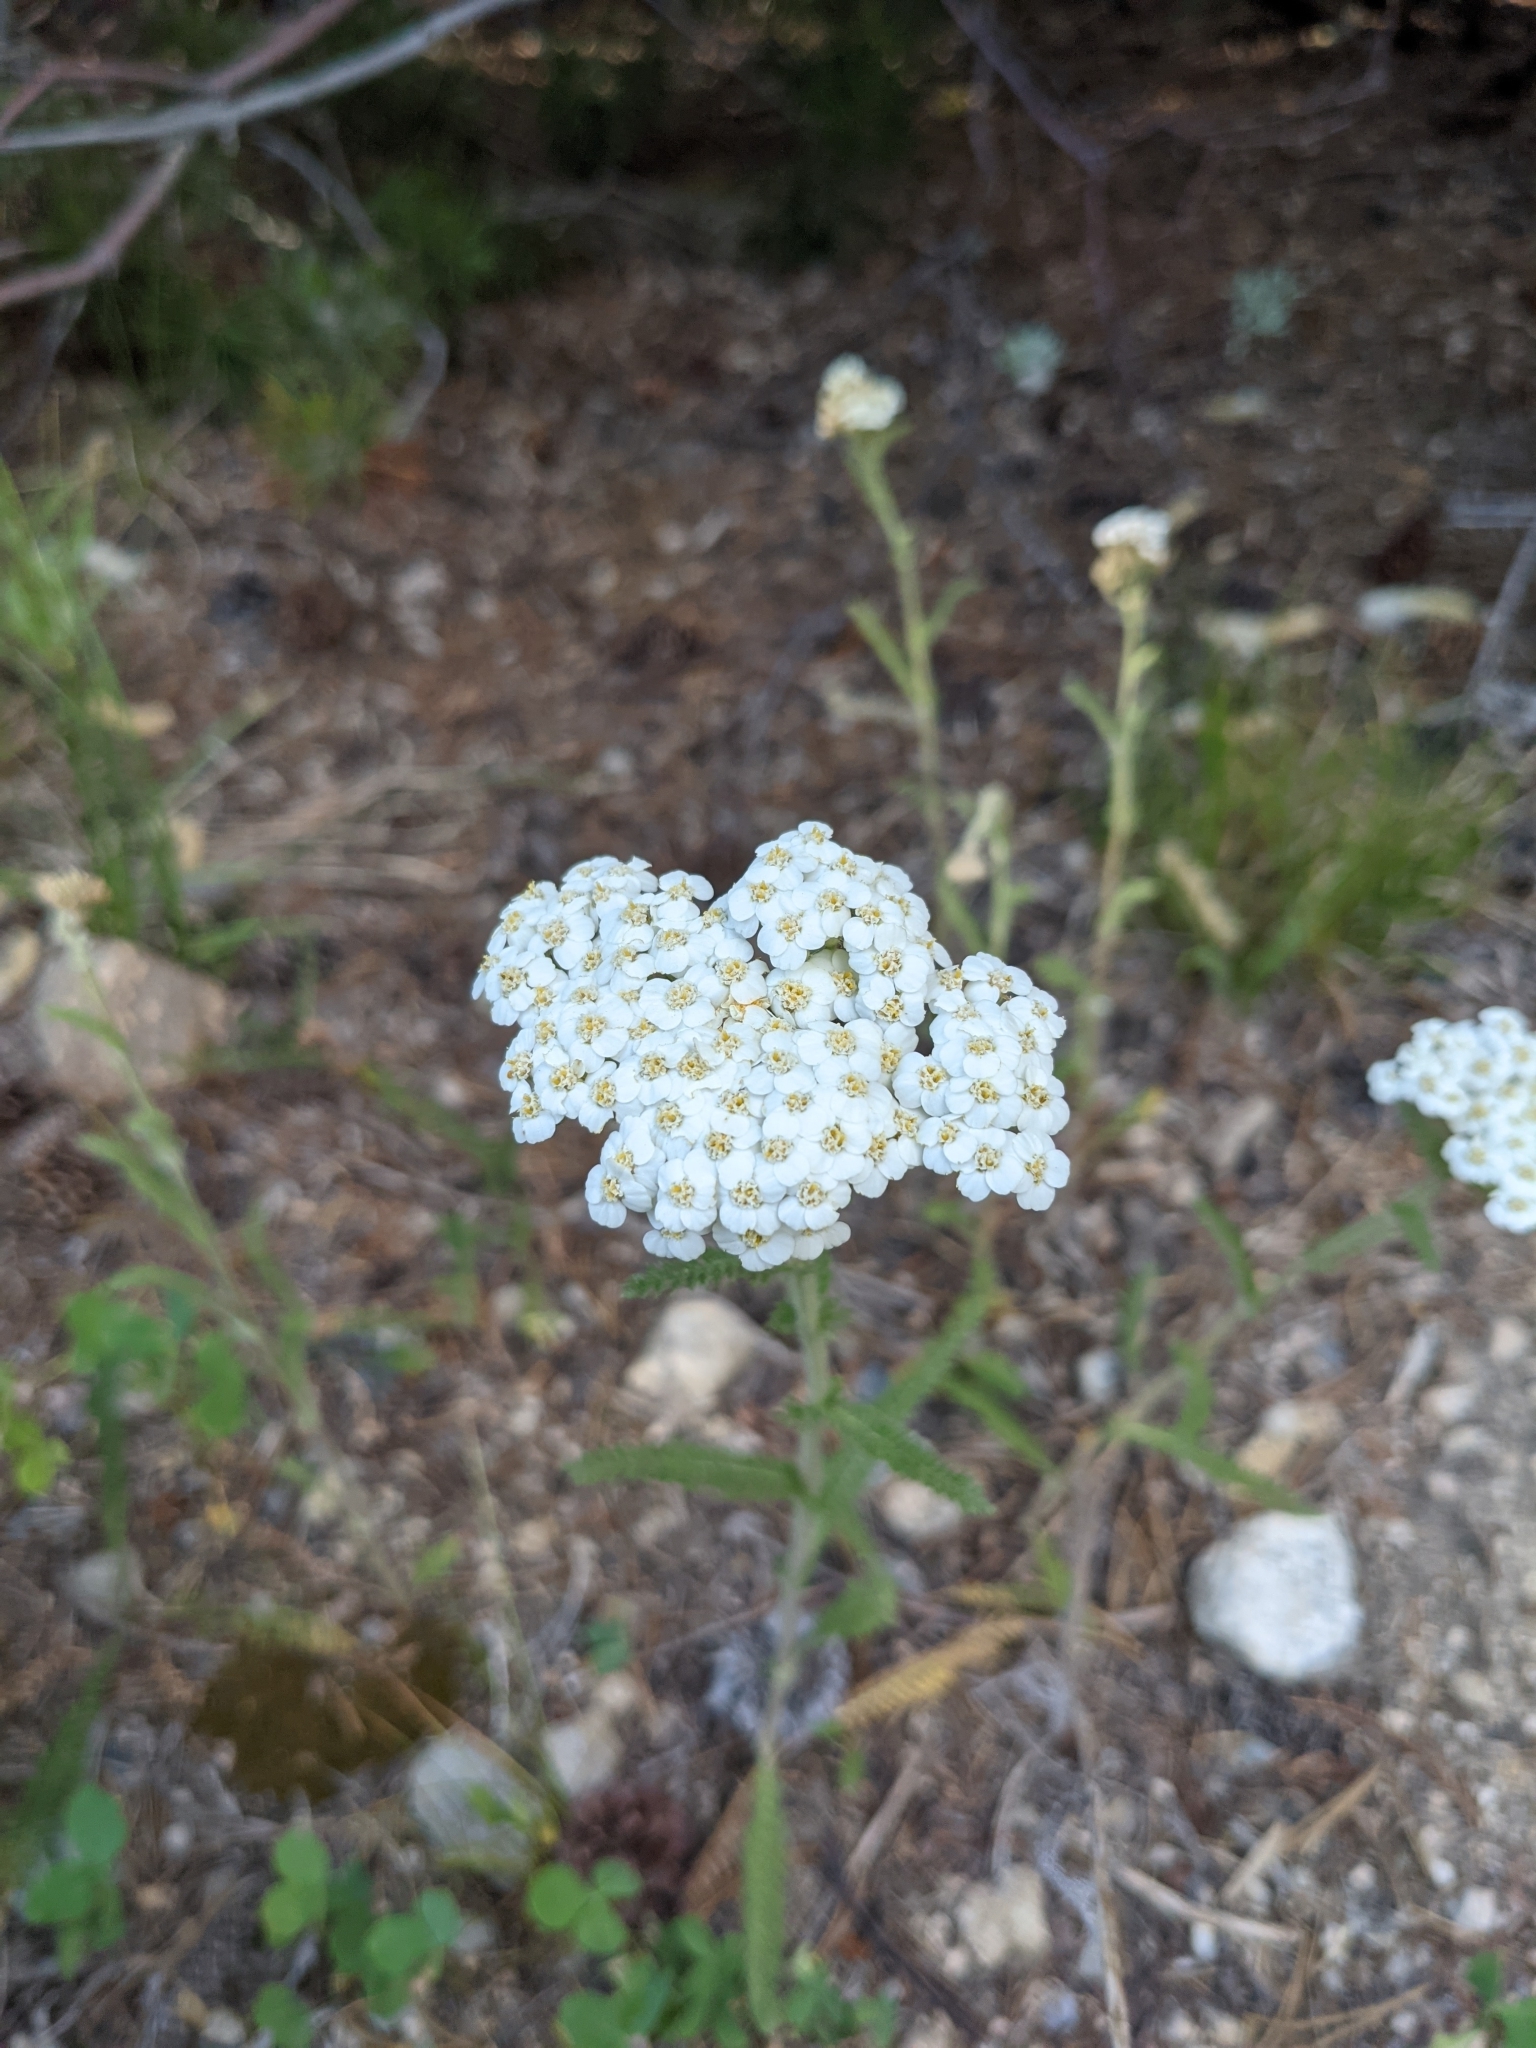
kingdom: Plantae
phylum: Tracheophyta
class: Magnoliopsida
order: Asterales
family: Asteraceae
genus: Achillea
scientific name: Achillea millefolium
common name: Yarrow
